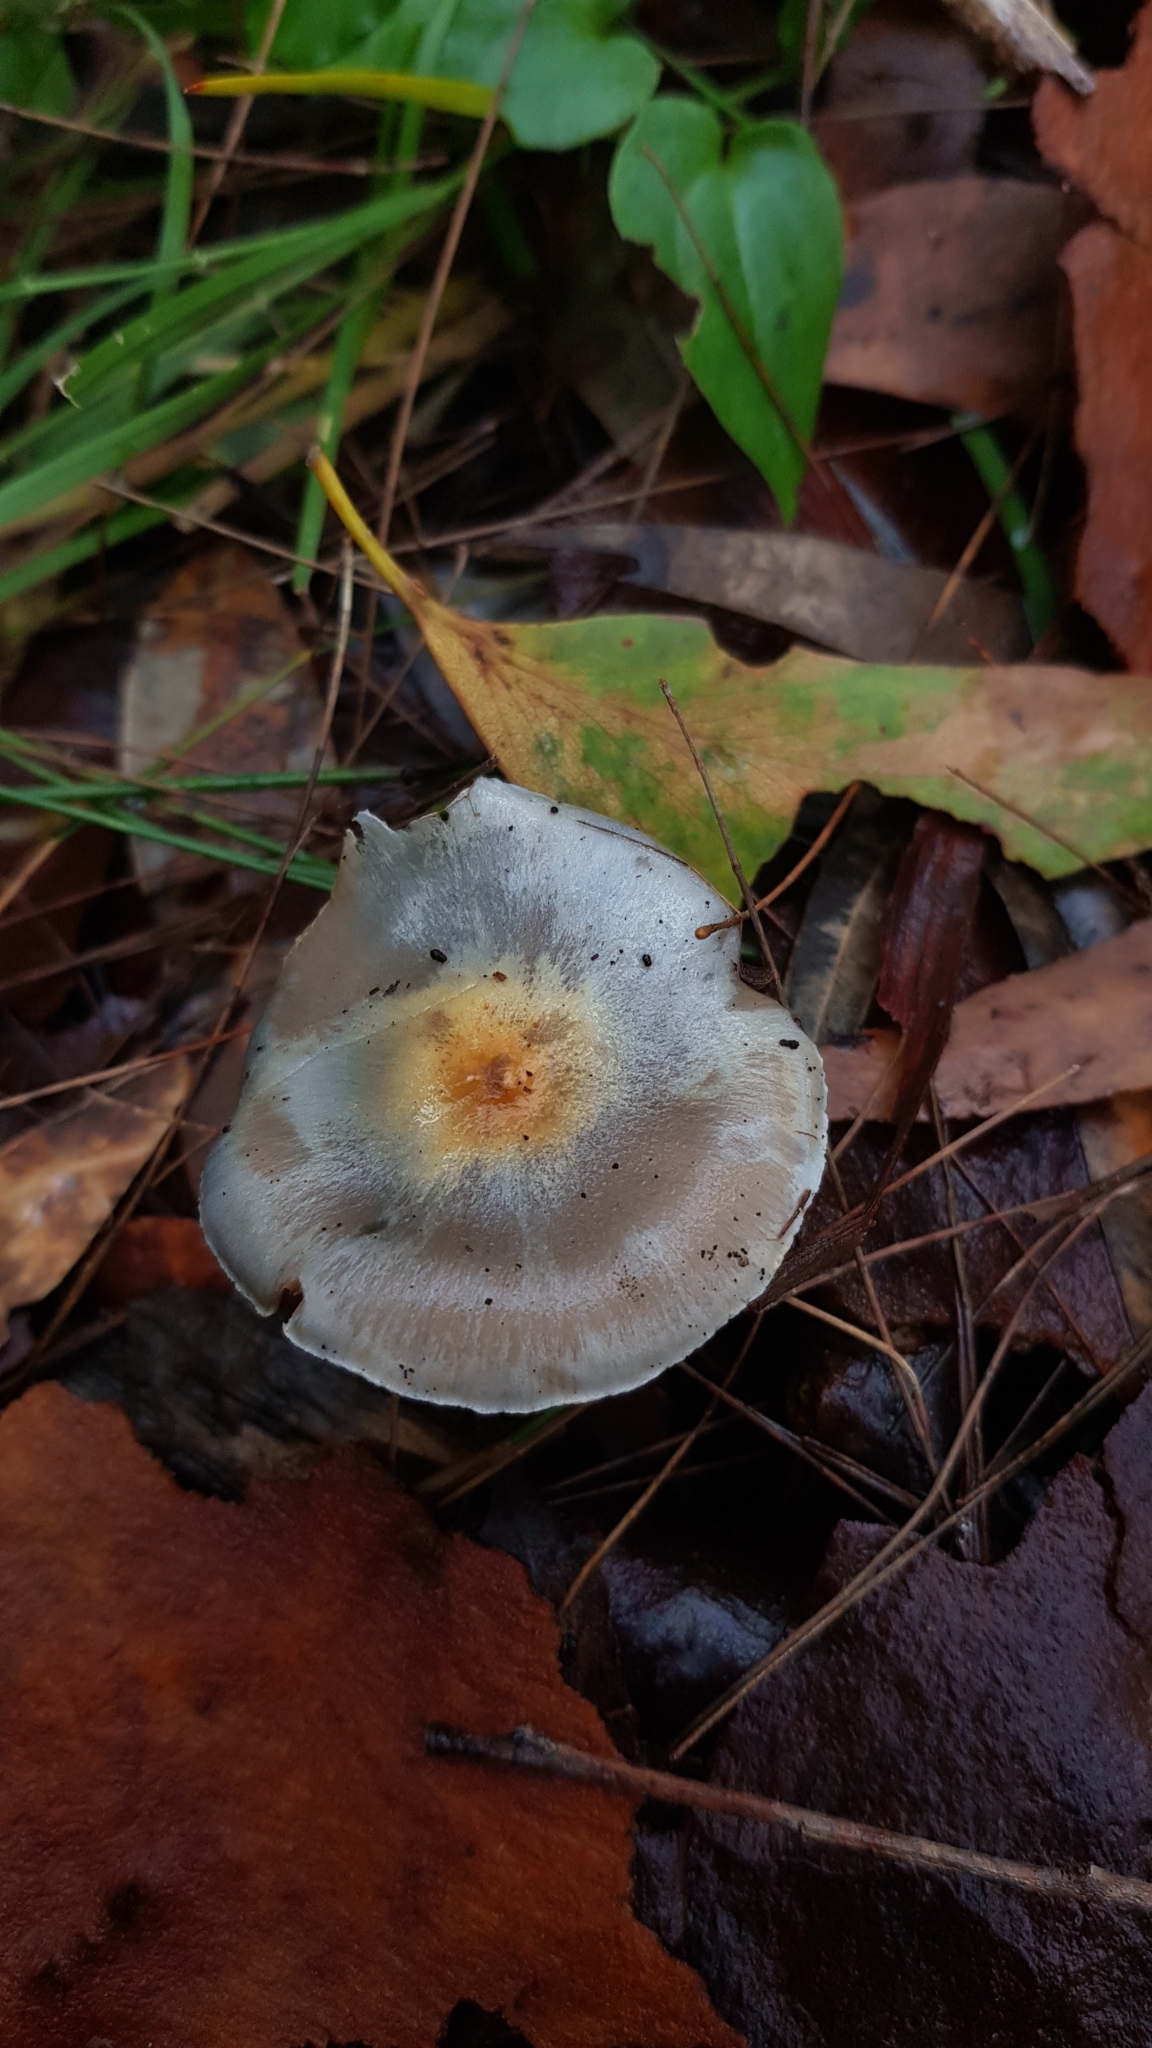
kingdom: Fungi
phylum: Basidiomycota
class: Agaricomycetes
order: Agaricales
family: Cortinariaceae
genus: Cortinarius
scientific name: Cortinarius rotundisporus
